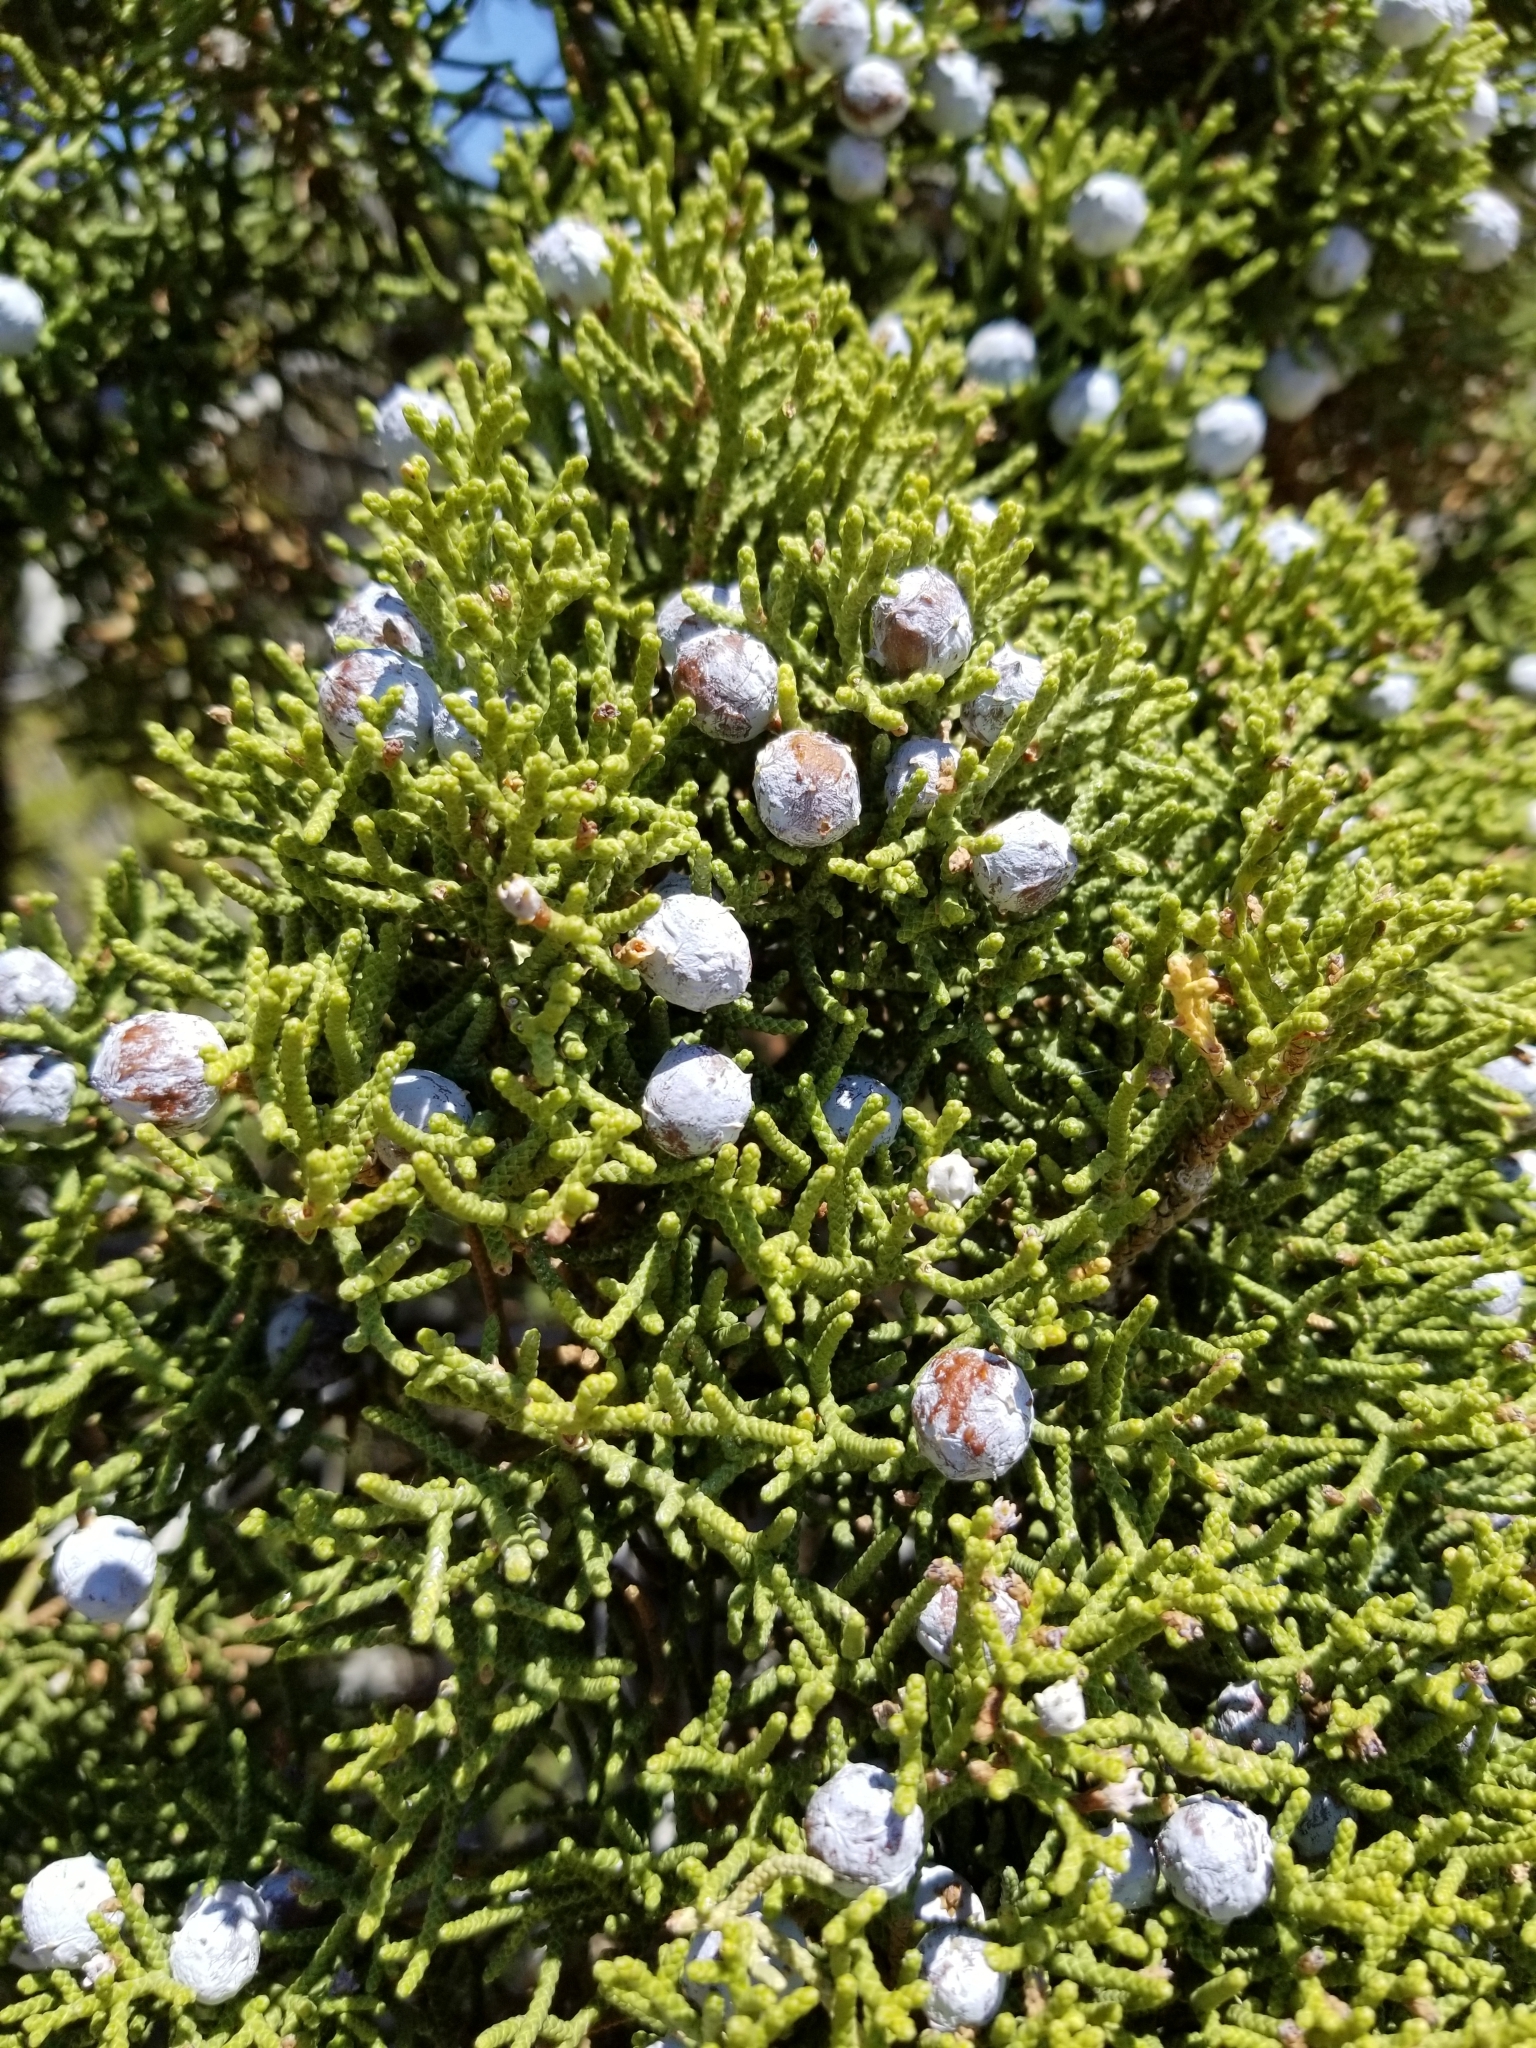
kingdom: Plantae
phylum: Tracheophyta
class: Pinopsida
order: Pinales
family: Cupressaceae
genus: Juniperus
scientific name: Juniperus californica
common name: California juniper
